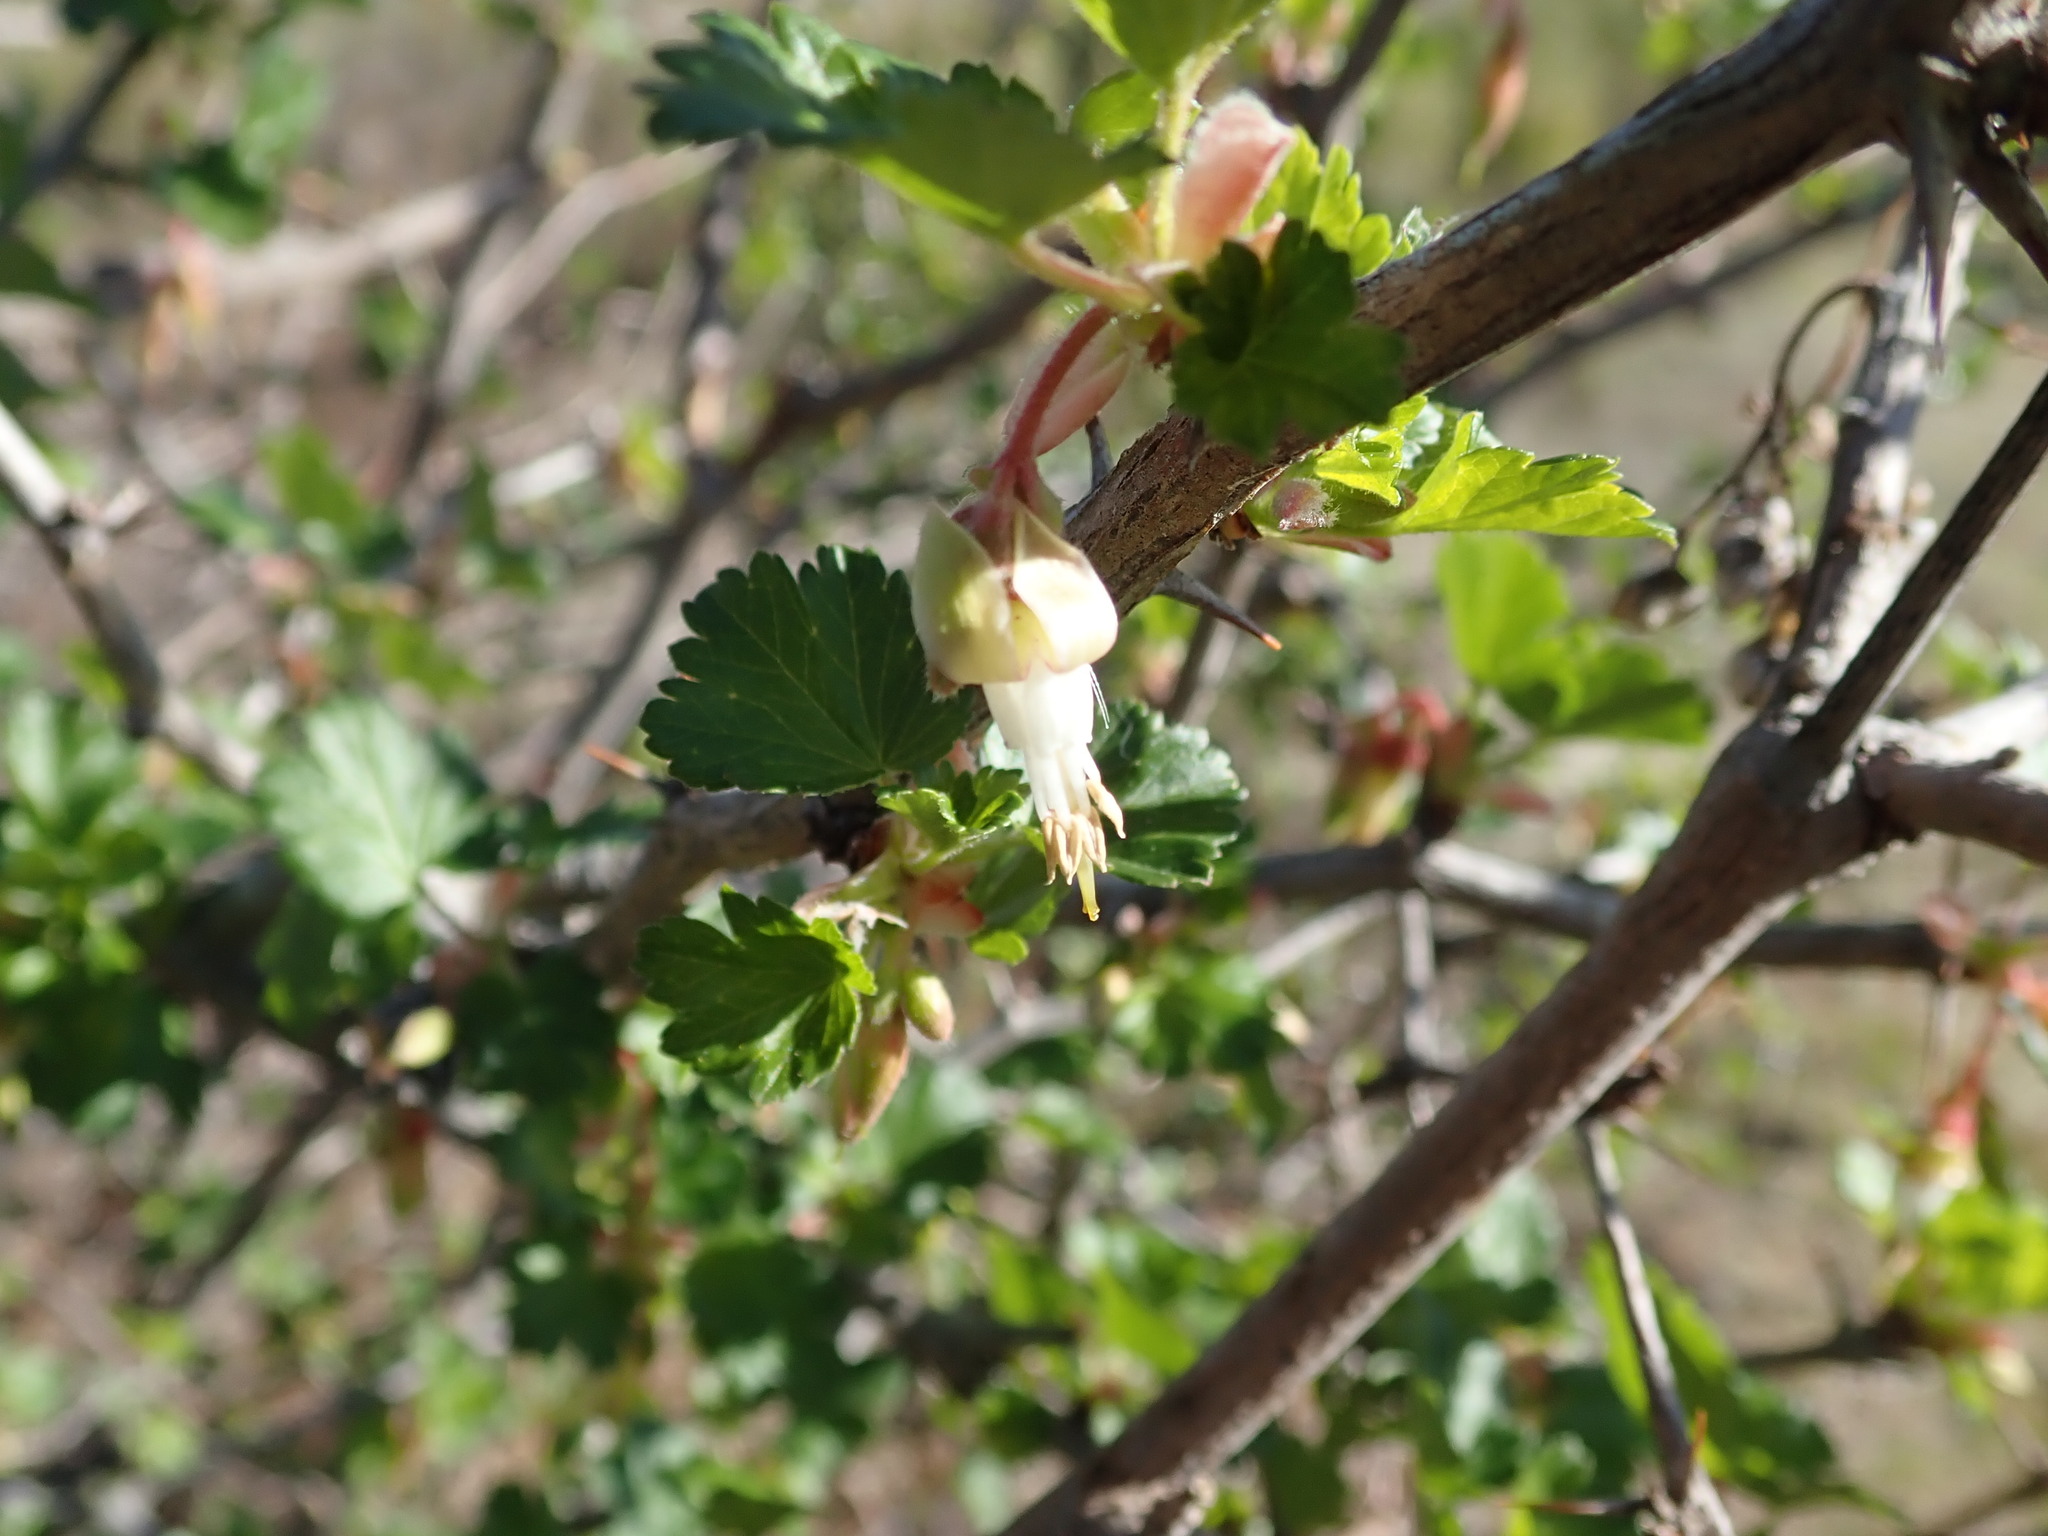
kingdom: Plantae
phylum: Tracheophyta
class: Magnoliopsida
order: Saxifragales
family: Grossulariaceae
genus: Ribes
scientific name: Ribes californicum
